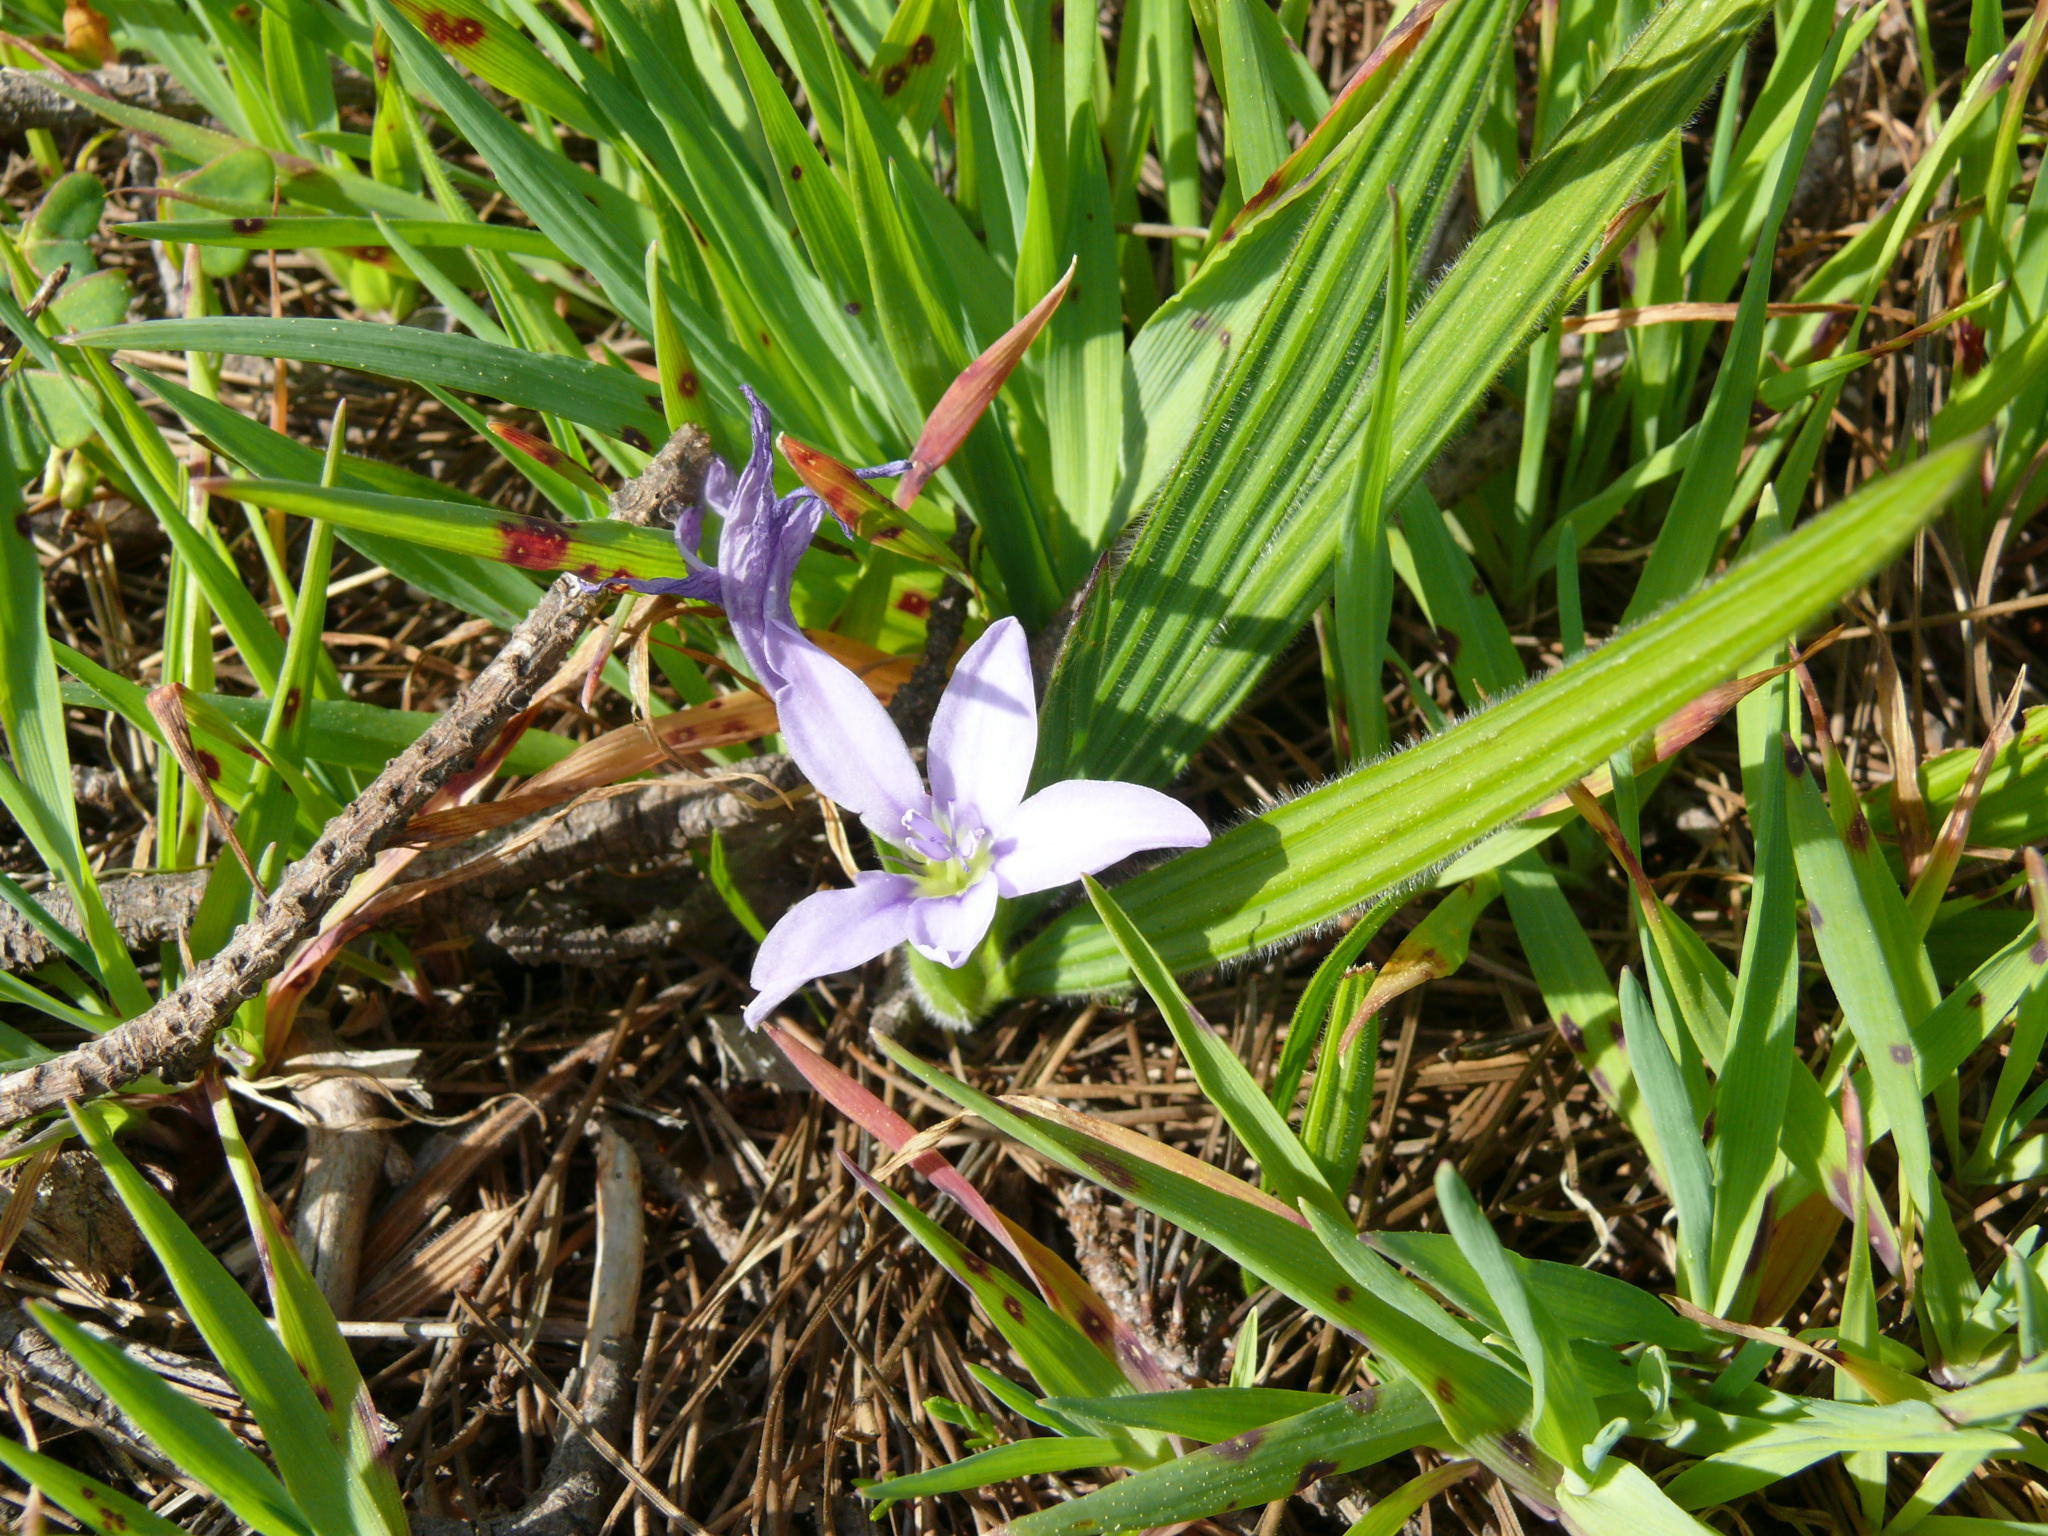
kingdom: Plantae
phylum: Tracheophyta
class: Liliopsida
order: Asparagales
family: Iridaceae
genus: Babiana
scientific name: Babiana villosula
